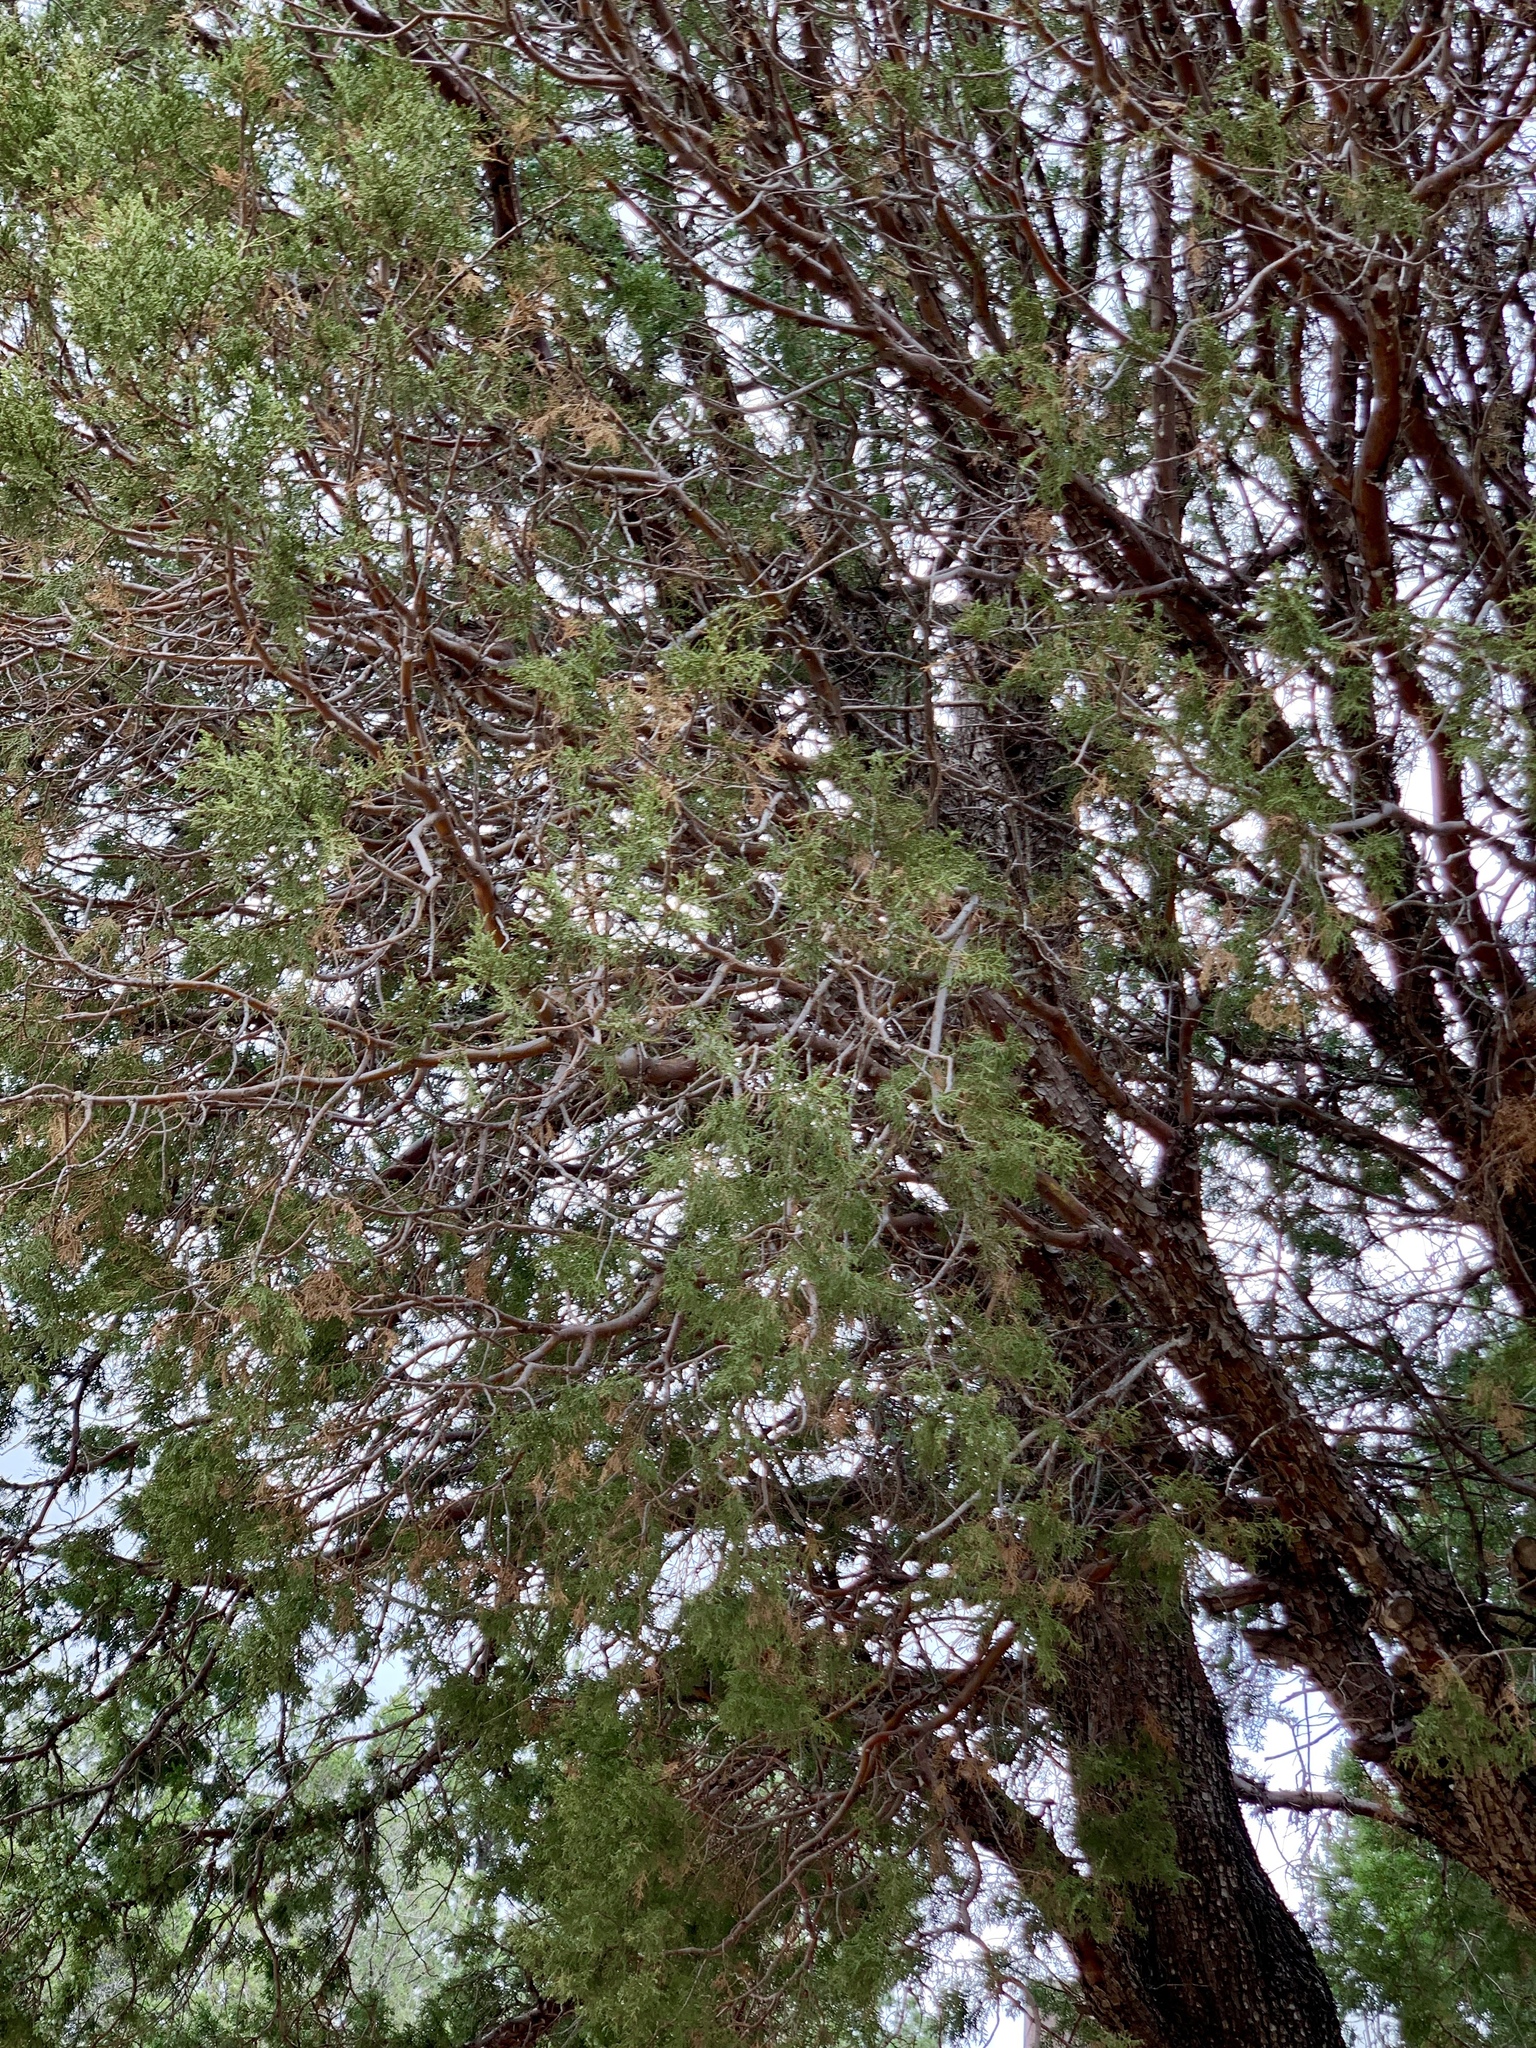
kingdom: Plantae
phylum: Tracheophyta
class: Pinopsida
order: Pinales
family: Cupressaceae
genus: Juniperus
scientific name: Juniperus deppeana
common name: Alligator juniper
